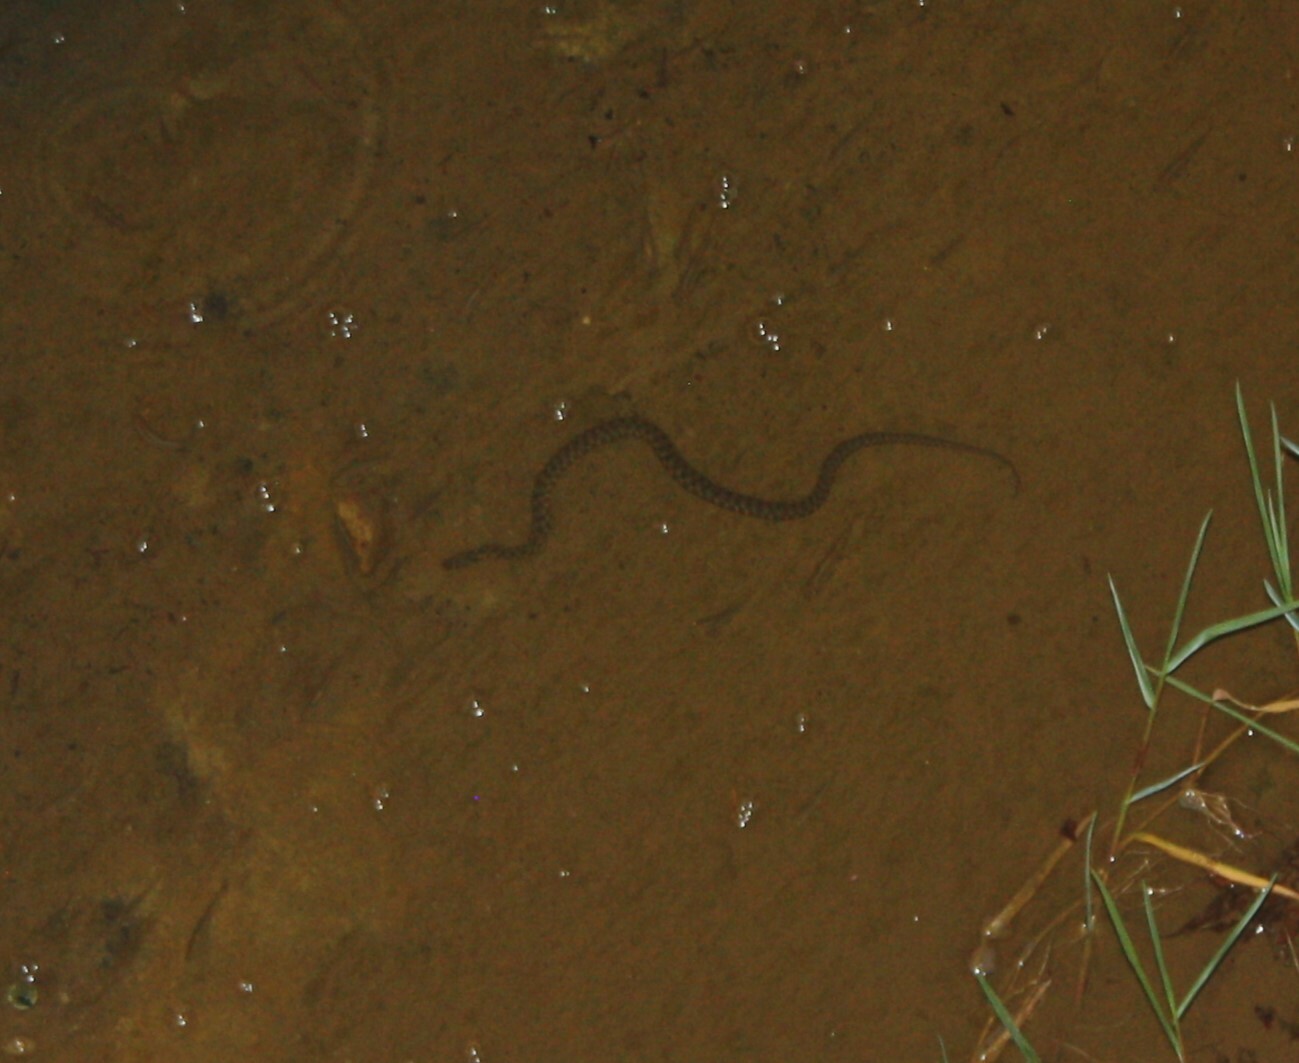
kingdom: Animalia
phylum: Chordata
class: Squamata
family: Colubridae
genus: Natrix
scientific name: Natrix tessellata
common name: Dice snake
